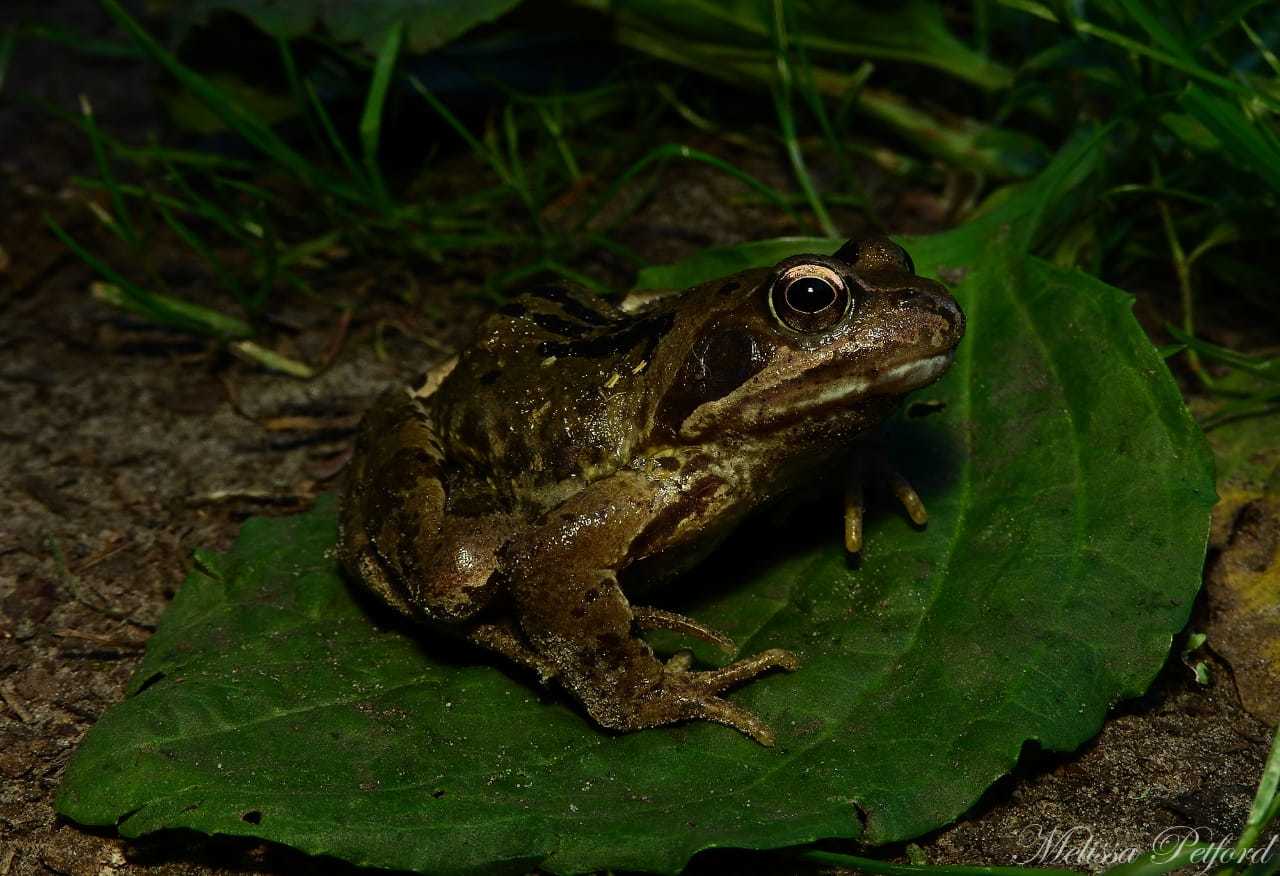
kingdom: Animalia
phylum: Chordata
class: Amphibia
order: Anura
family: Ranidae
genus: Rana
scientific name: Rana temporaria
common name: Common frog
